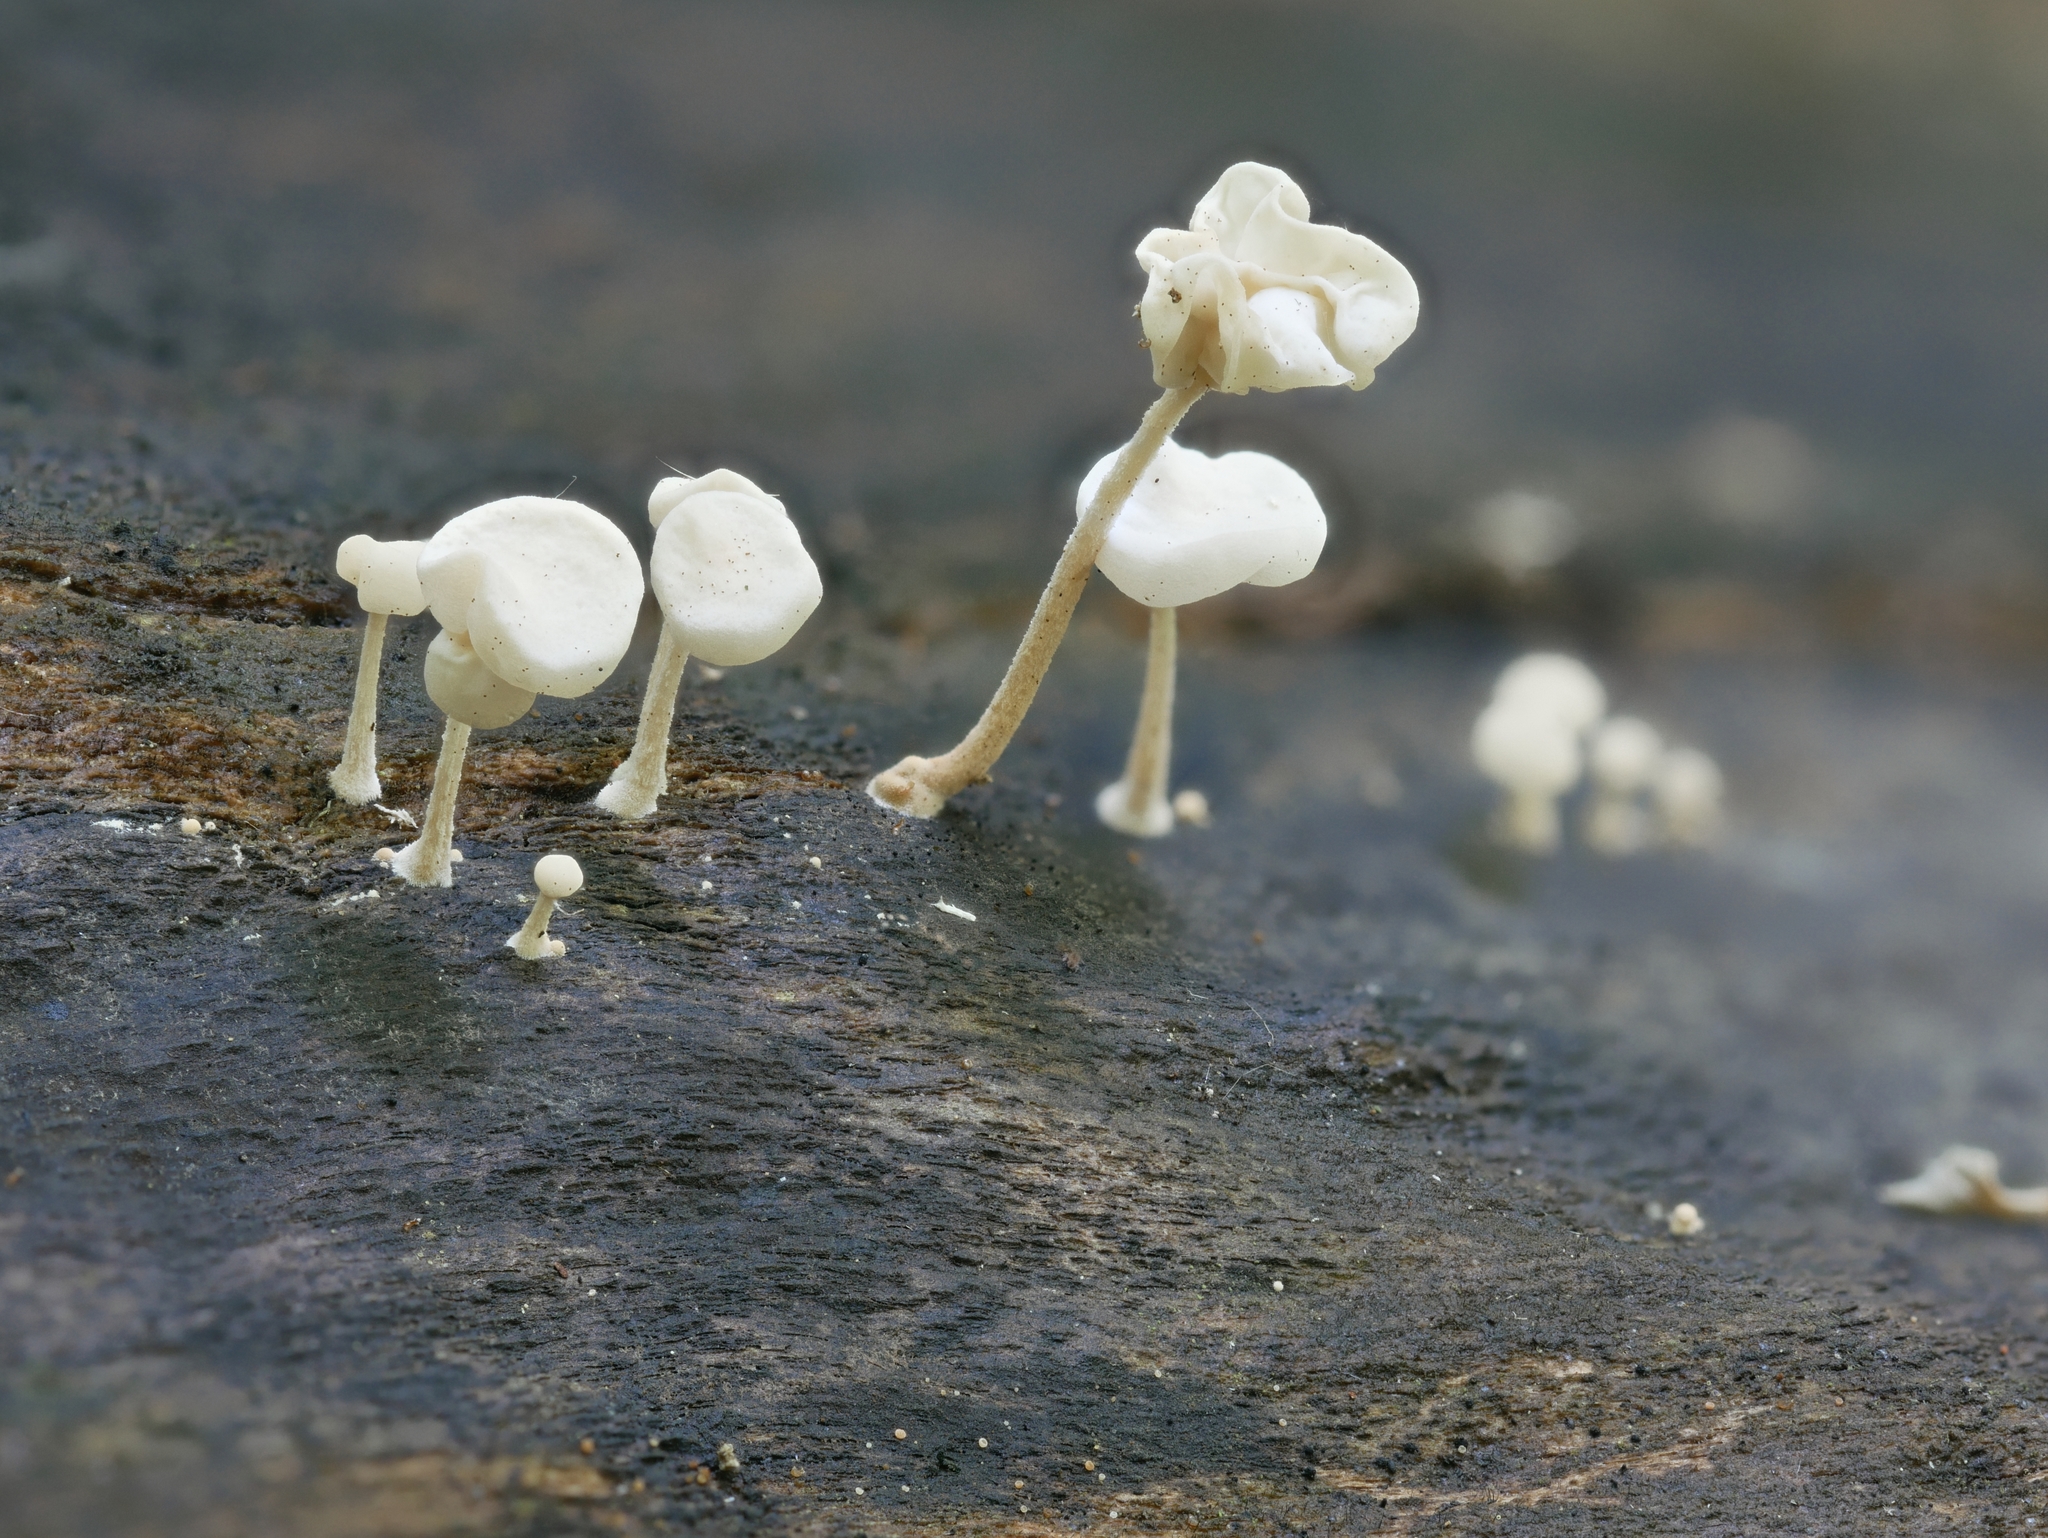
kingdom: Fungi
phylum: Basidiomycota
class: Agaricomycetes
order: Agaricales
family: Physalacriaceae
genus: Physalacria
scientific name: Physalacria inflata
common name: Bladder stalks
